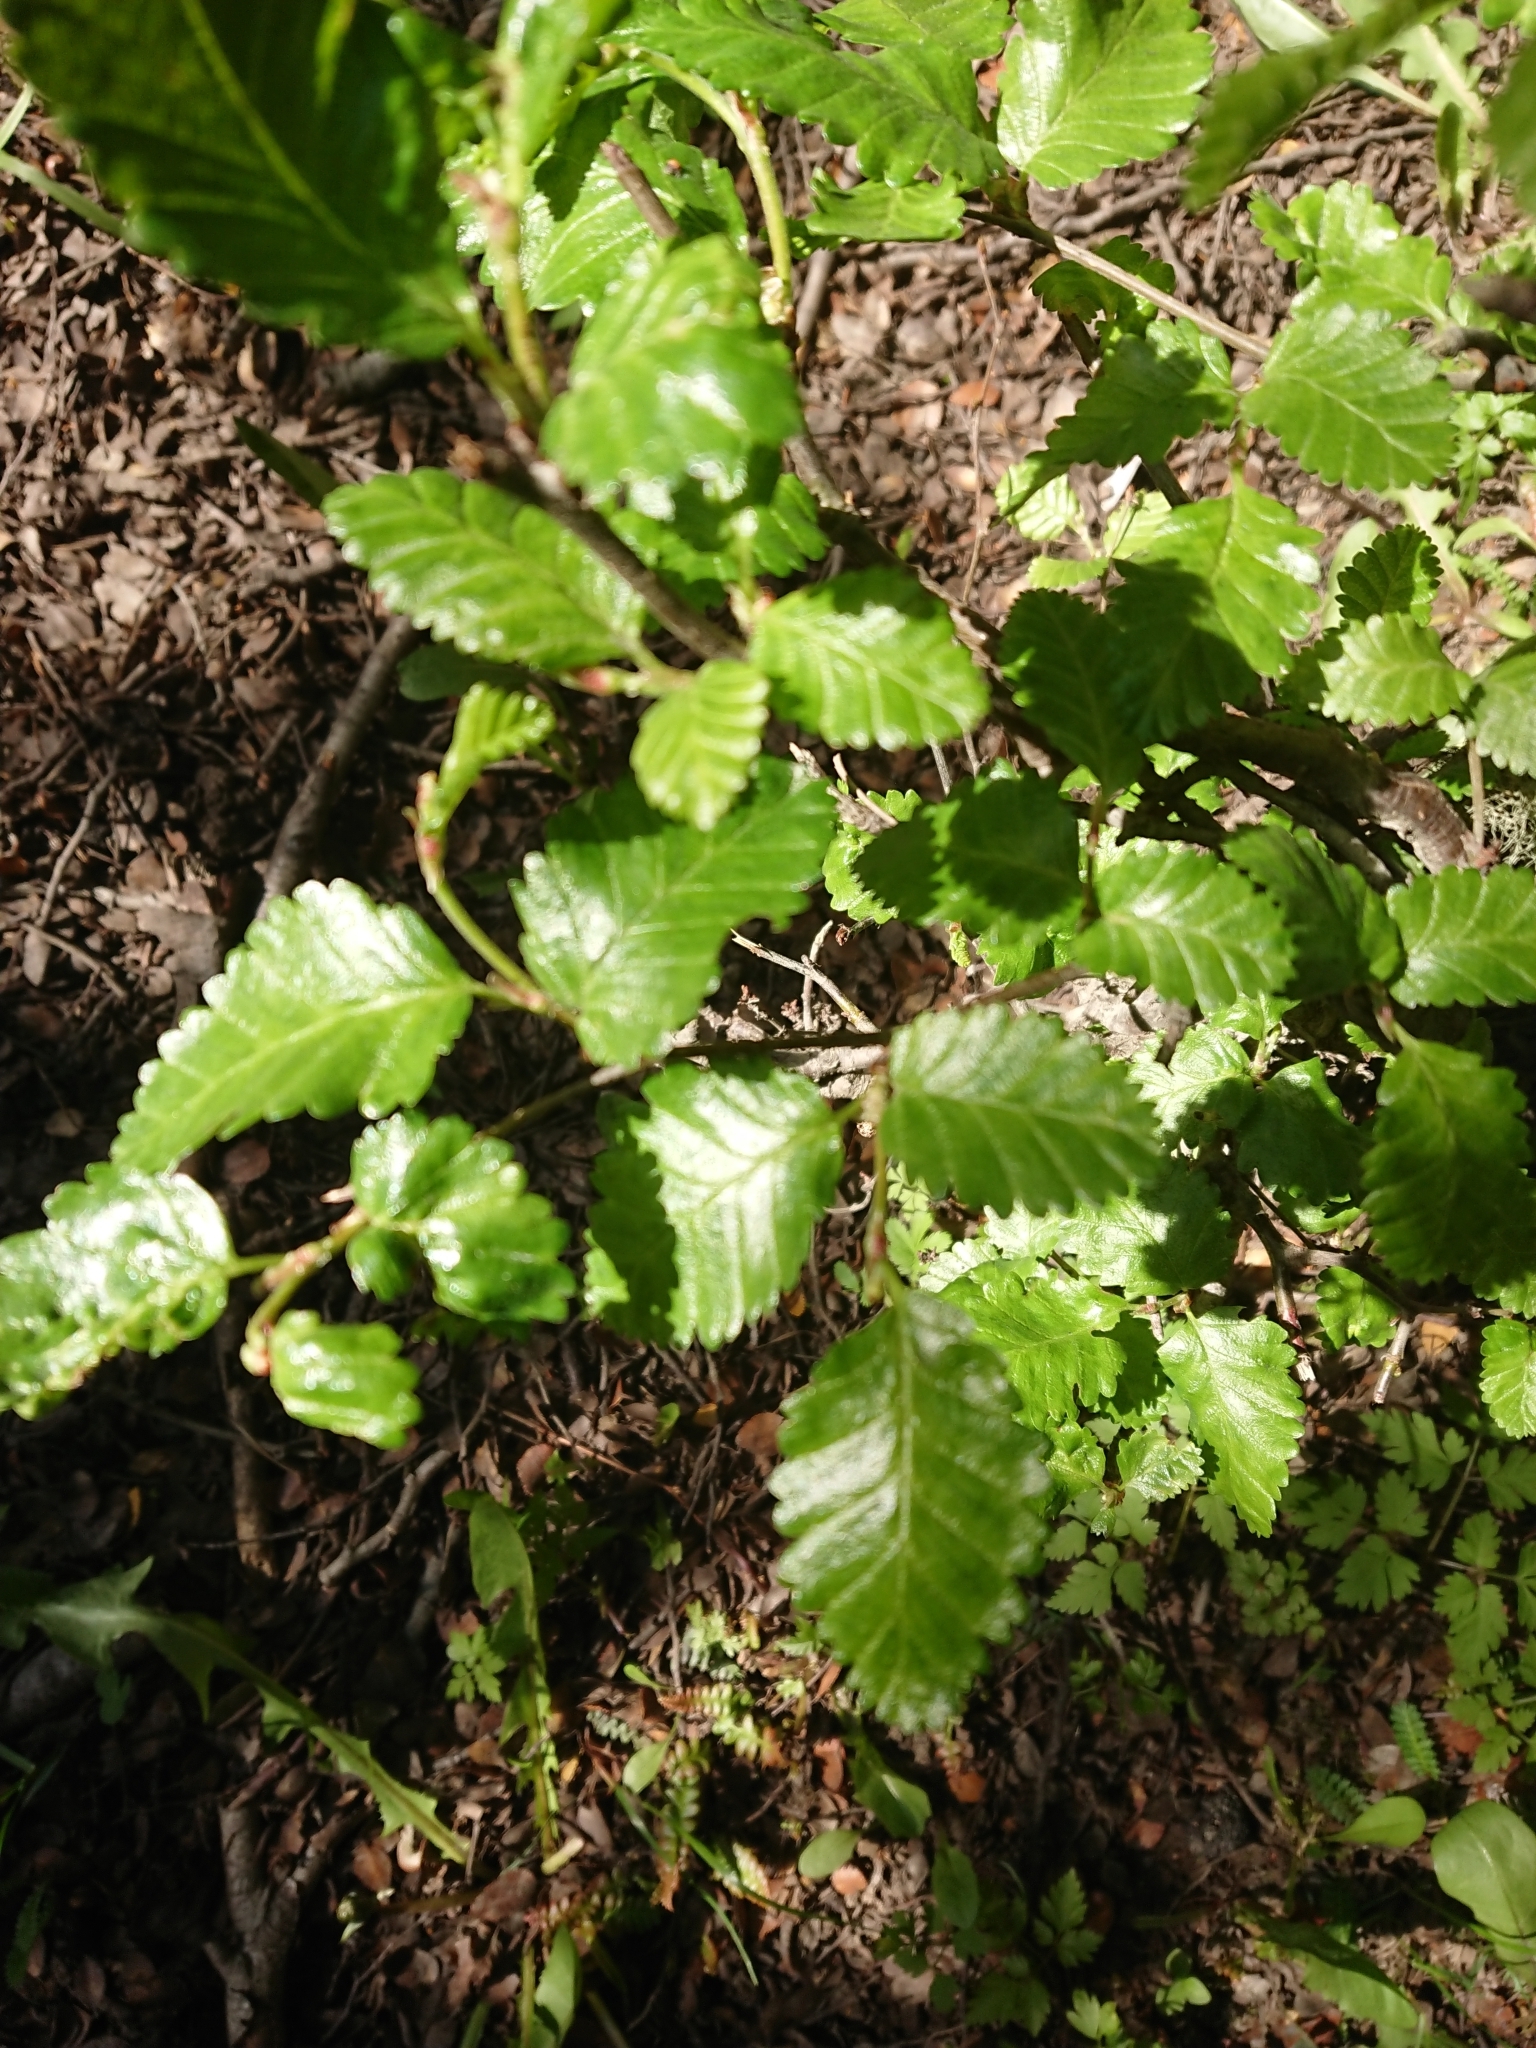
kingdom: Plantae
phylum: Tracheophyta
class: Magnoliopsida
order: Fagales
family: Nothofagaceae
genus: Nothofagus
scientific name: Nothofagus pumilio
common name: Lenga beech
